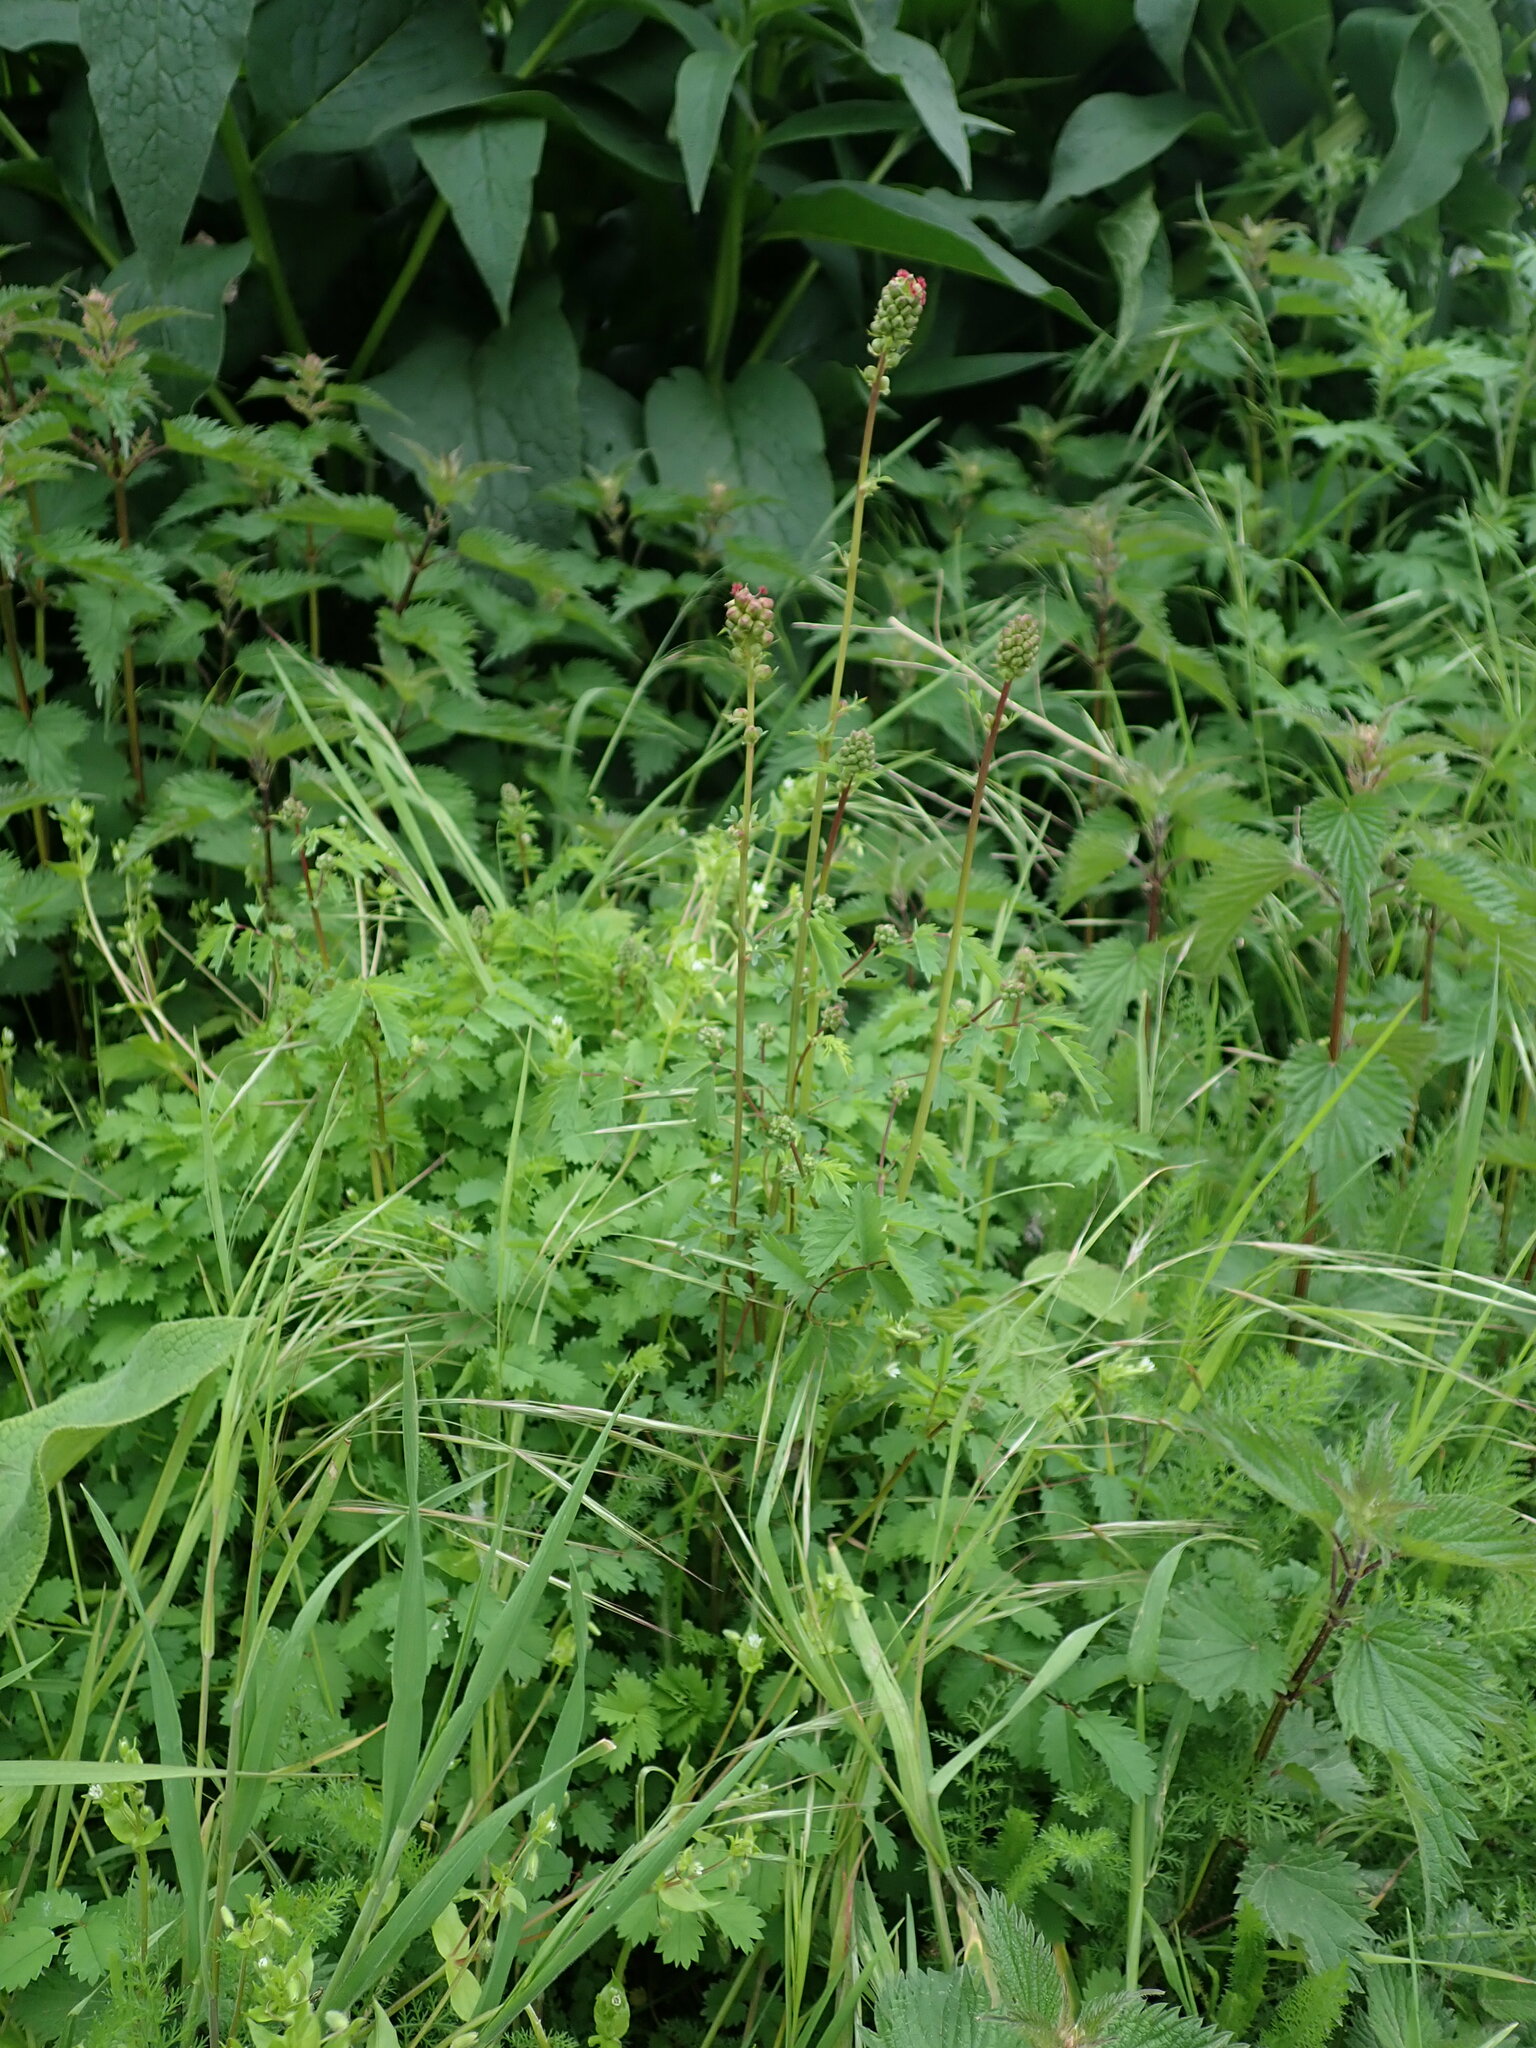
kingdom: Plantae
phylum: Tracheophyta
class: Magnoliopsida
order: Rosales
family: Rosaceae
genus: Poterium
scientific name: Poterium sanguisorba
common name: Salad burnet
